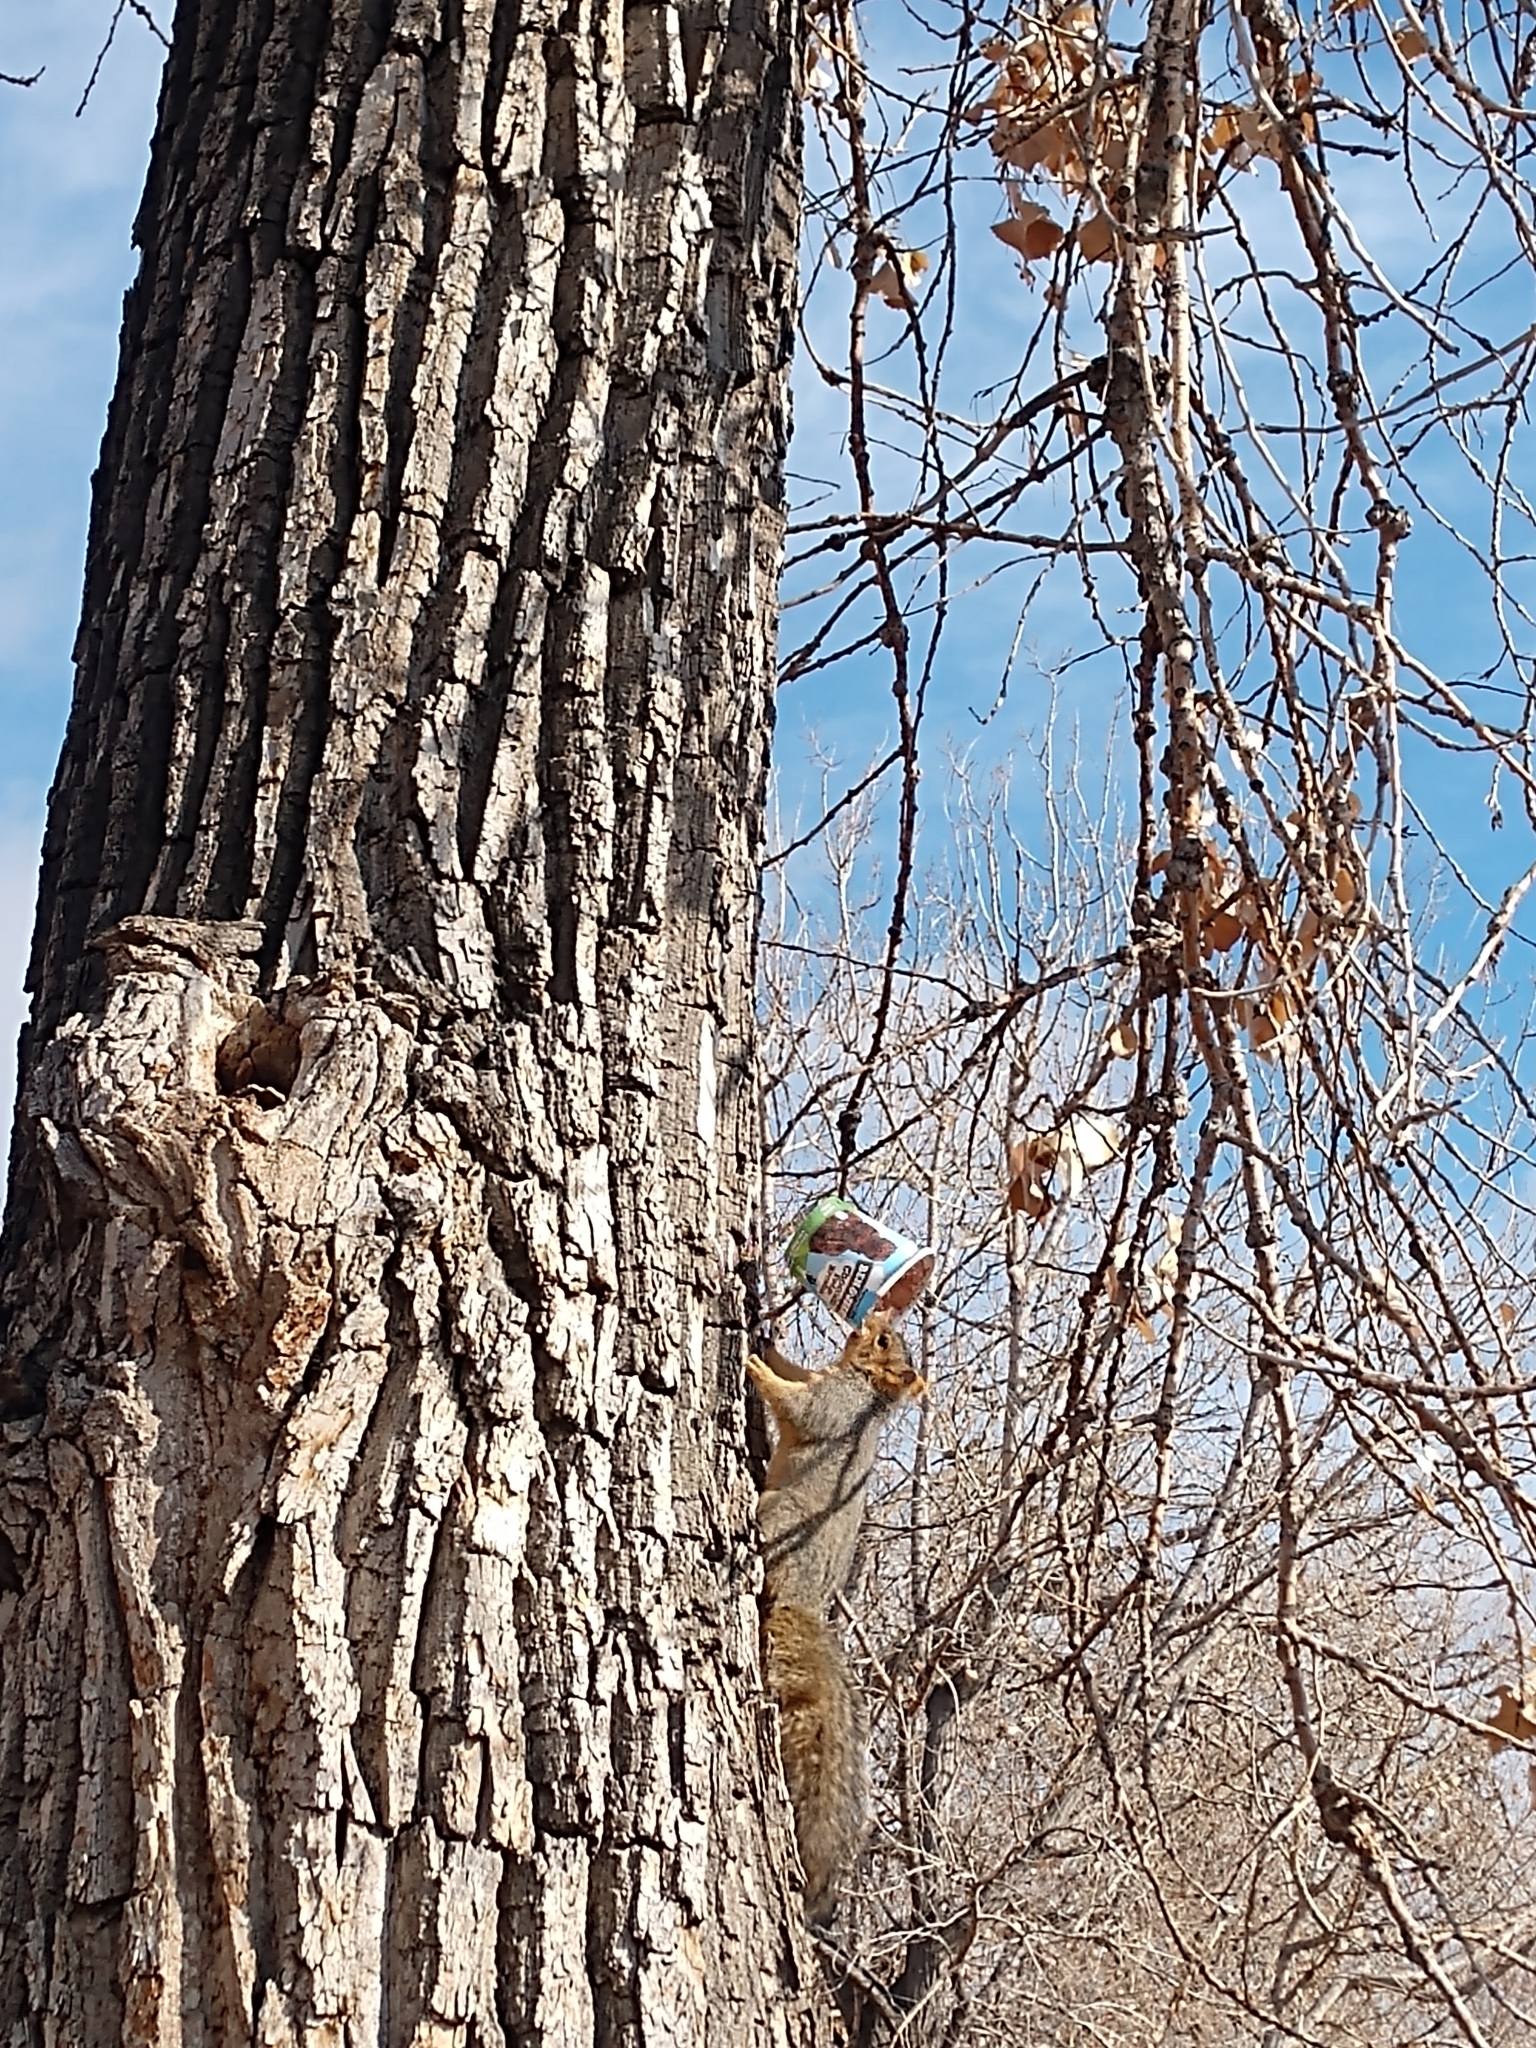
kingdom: Animalia
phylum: Chordata
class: Mammalia
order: Rodentia
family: Sciuridae
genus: Sciurus
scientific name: Sciurus niger
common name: Fox squirrel
